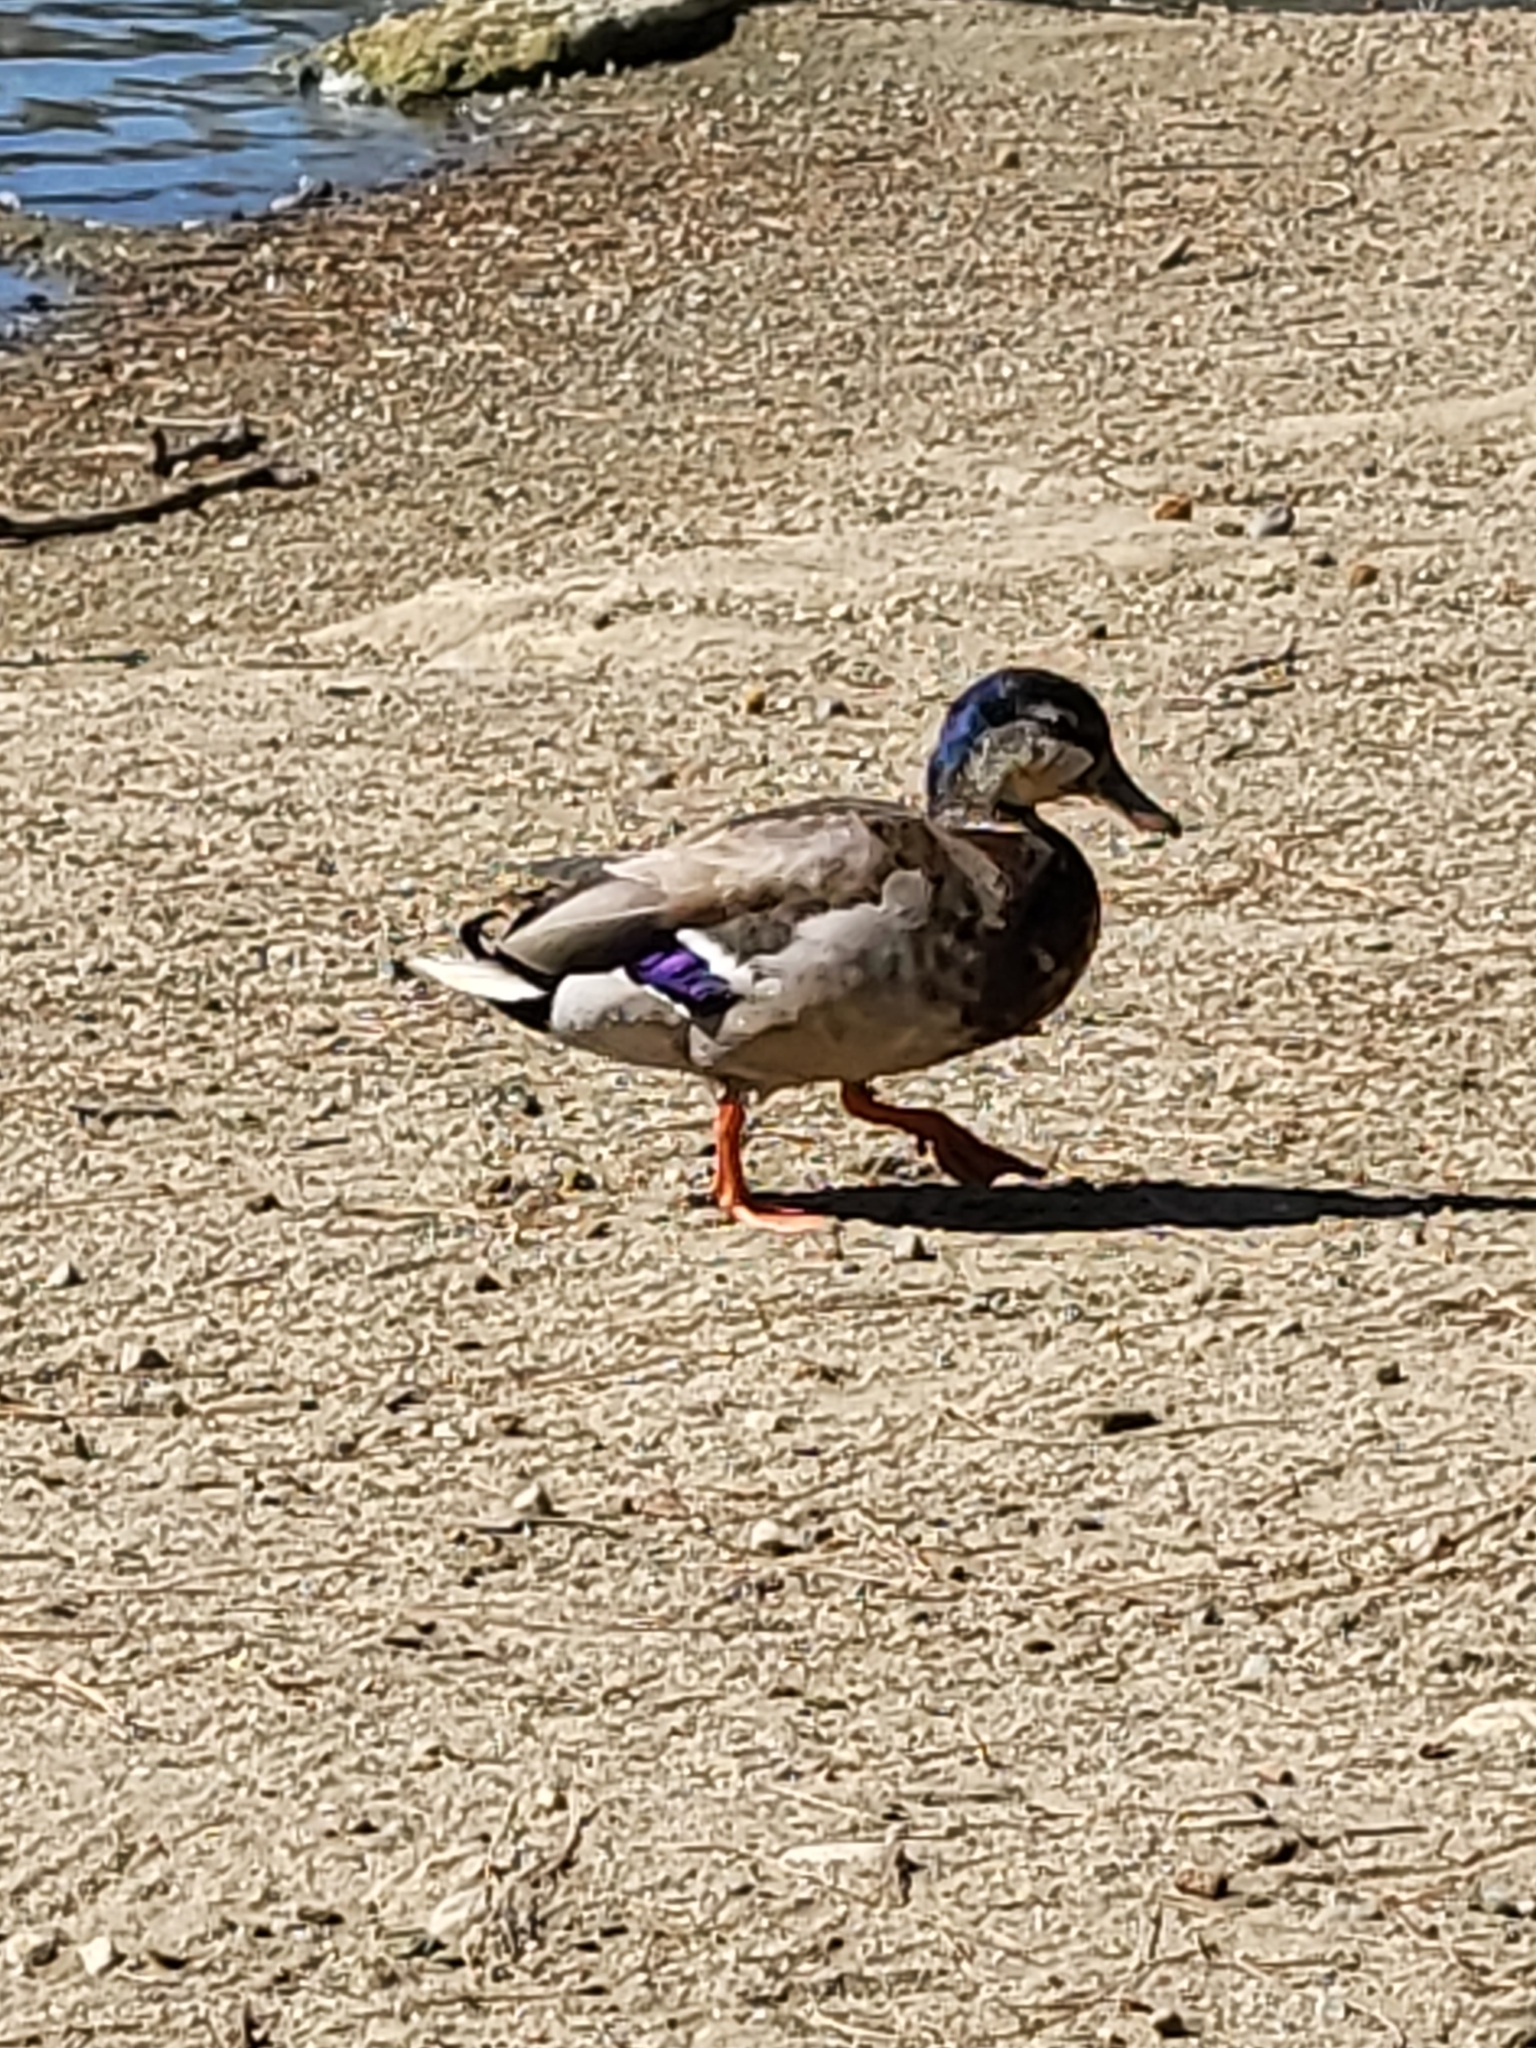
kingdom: Animalia
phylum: Chordata
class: Aves
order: Anseriformes
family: Anatidae
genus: Anas
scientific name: Anas platyrhynchos
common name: Mallard
